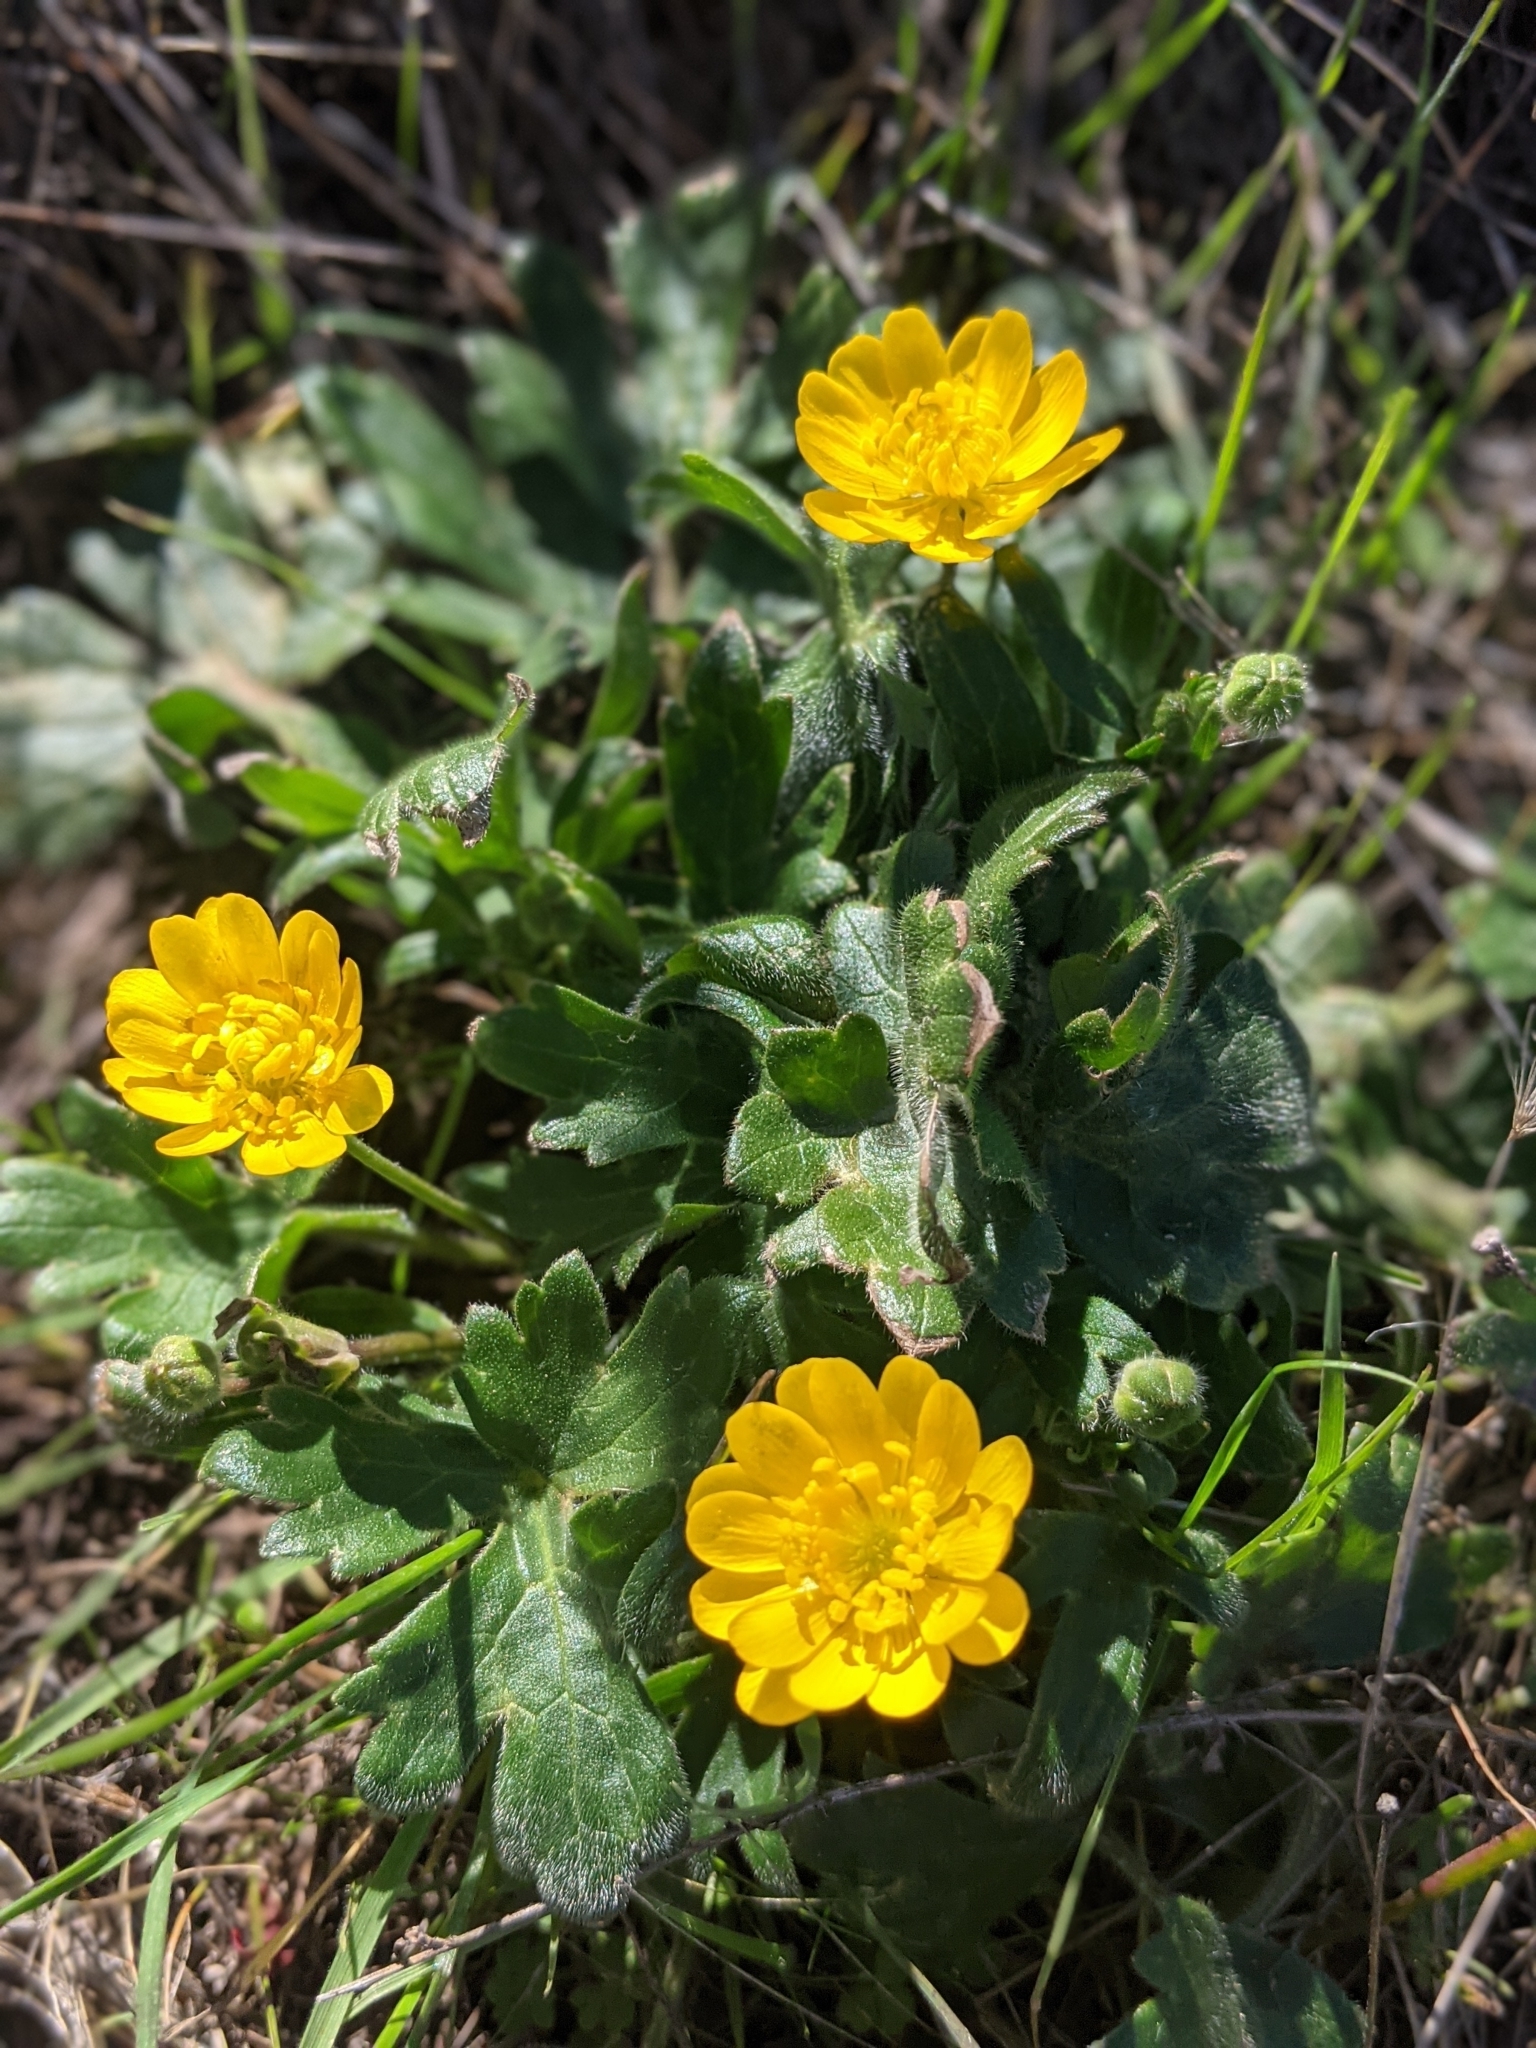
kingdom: Plantae
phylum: Tracheophyta
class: Magnoliopsida
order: Ranunculales
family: Ranunculaceae
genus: Ranunculus
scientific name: Ranunculus californicus
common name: California buttercup
